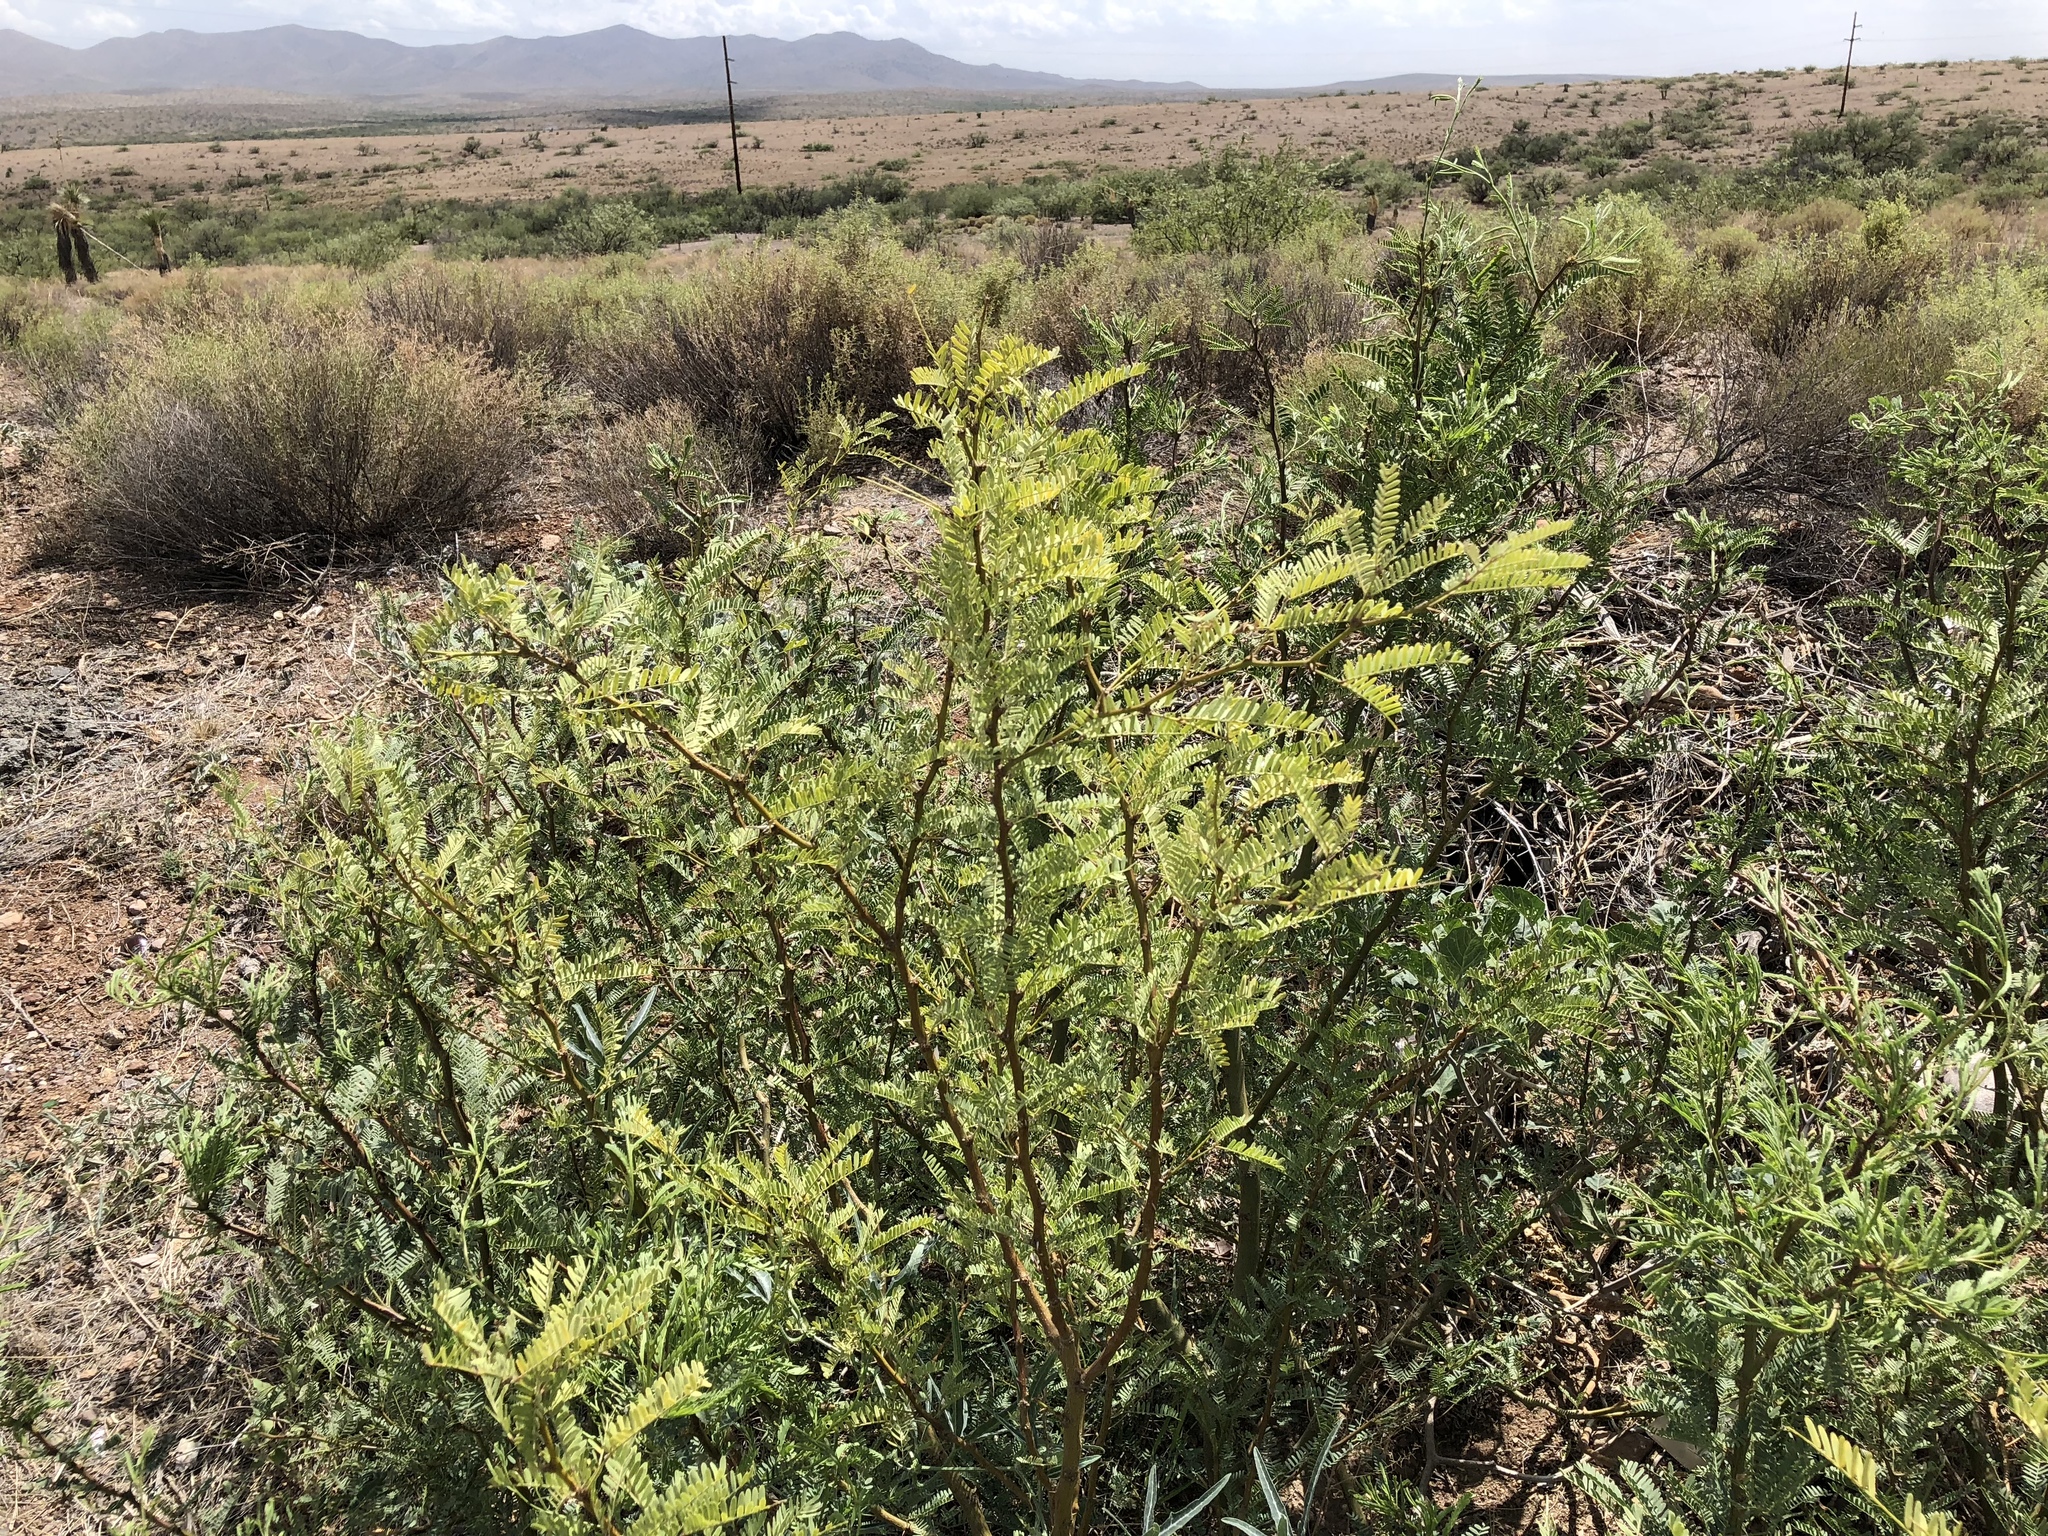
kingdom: Plantae
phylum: Tracheophyta
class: Magnoliopsida
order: Fabales
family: Fabaceae
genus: Prosopis
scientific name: Prosopis glandulosa
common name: Honey mesquite
